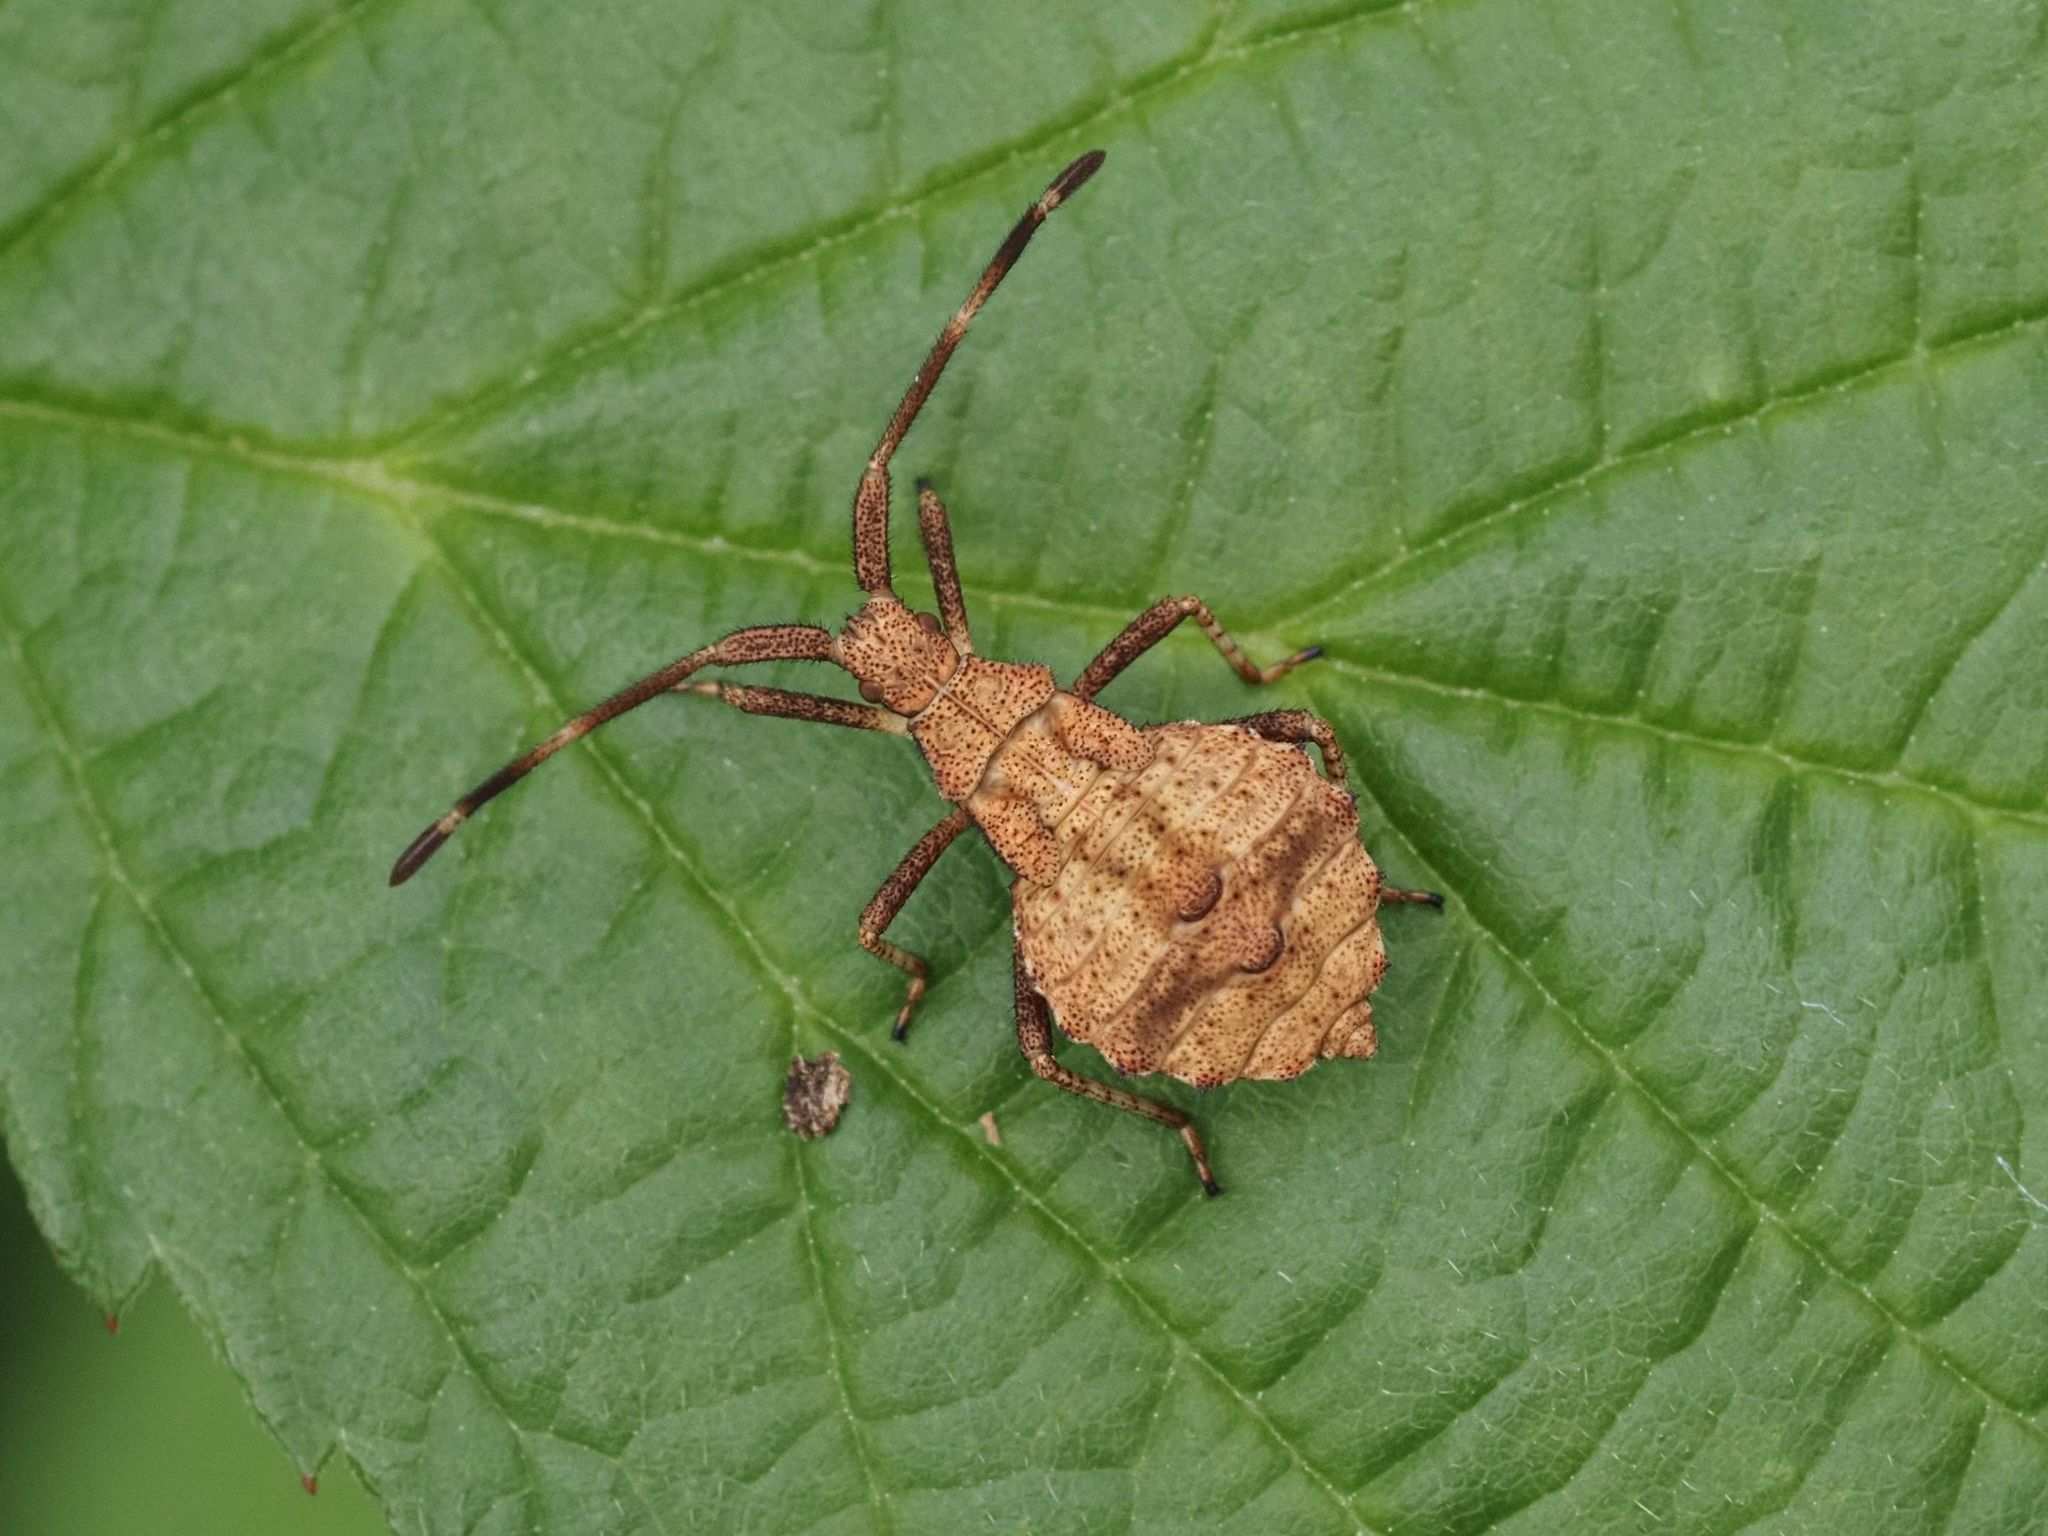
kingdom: Animalia
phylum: Arthropoda
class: Insecta
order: Hemiptera
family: Coreidae
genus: Coreus
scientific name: Coreus marginatus
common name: Dock bug
